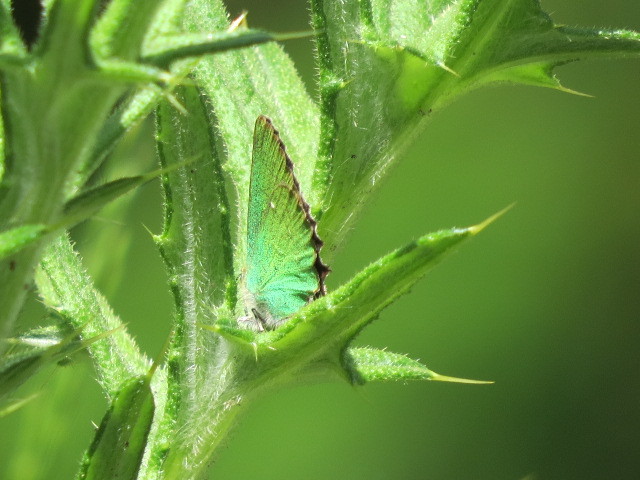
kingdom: Animalia
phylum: Arthropoda
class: Insecta
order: Lepidoptera
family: Lycaenidae
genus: Callophrys
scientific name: Callophrys rubi
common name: Green hairstreak
